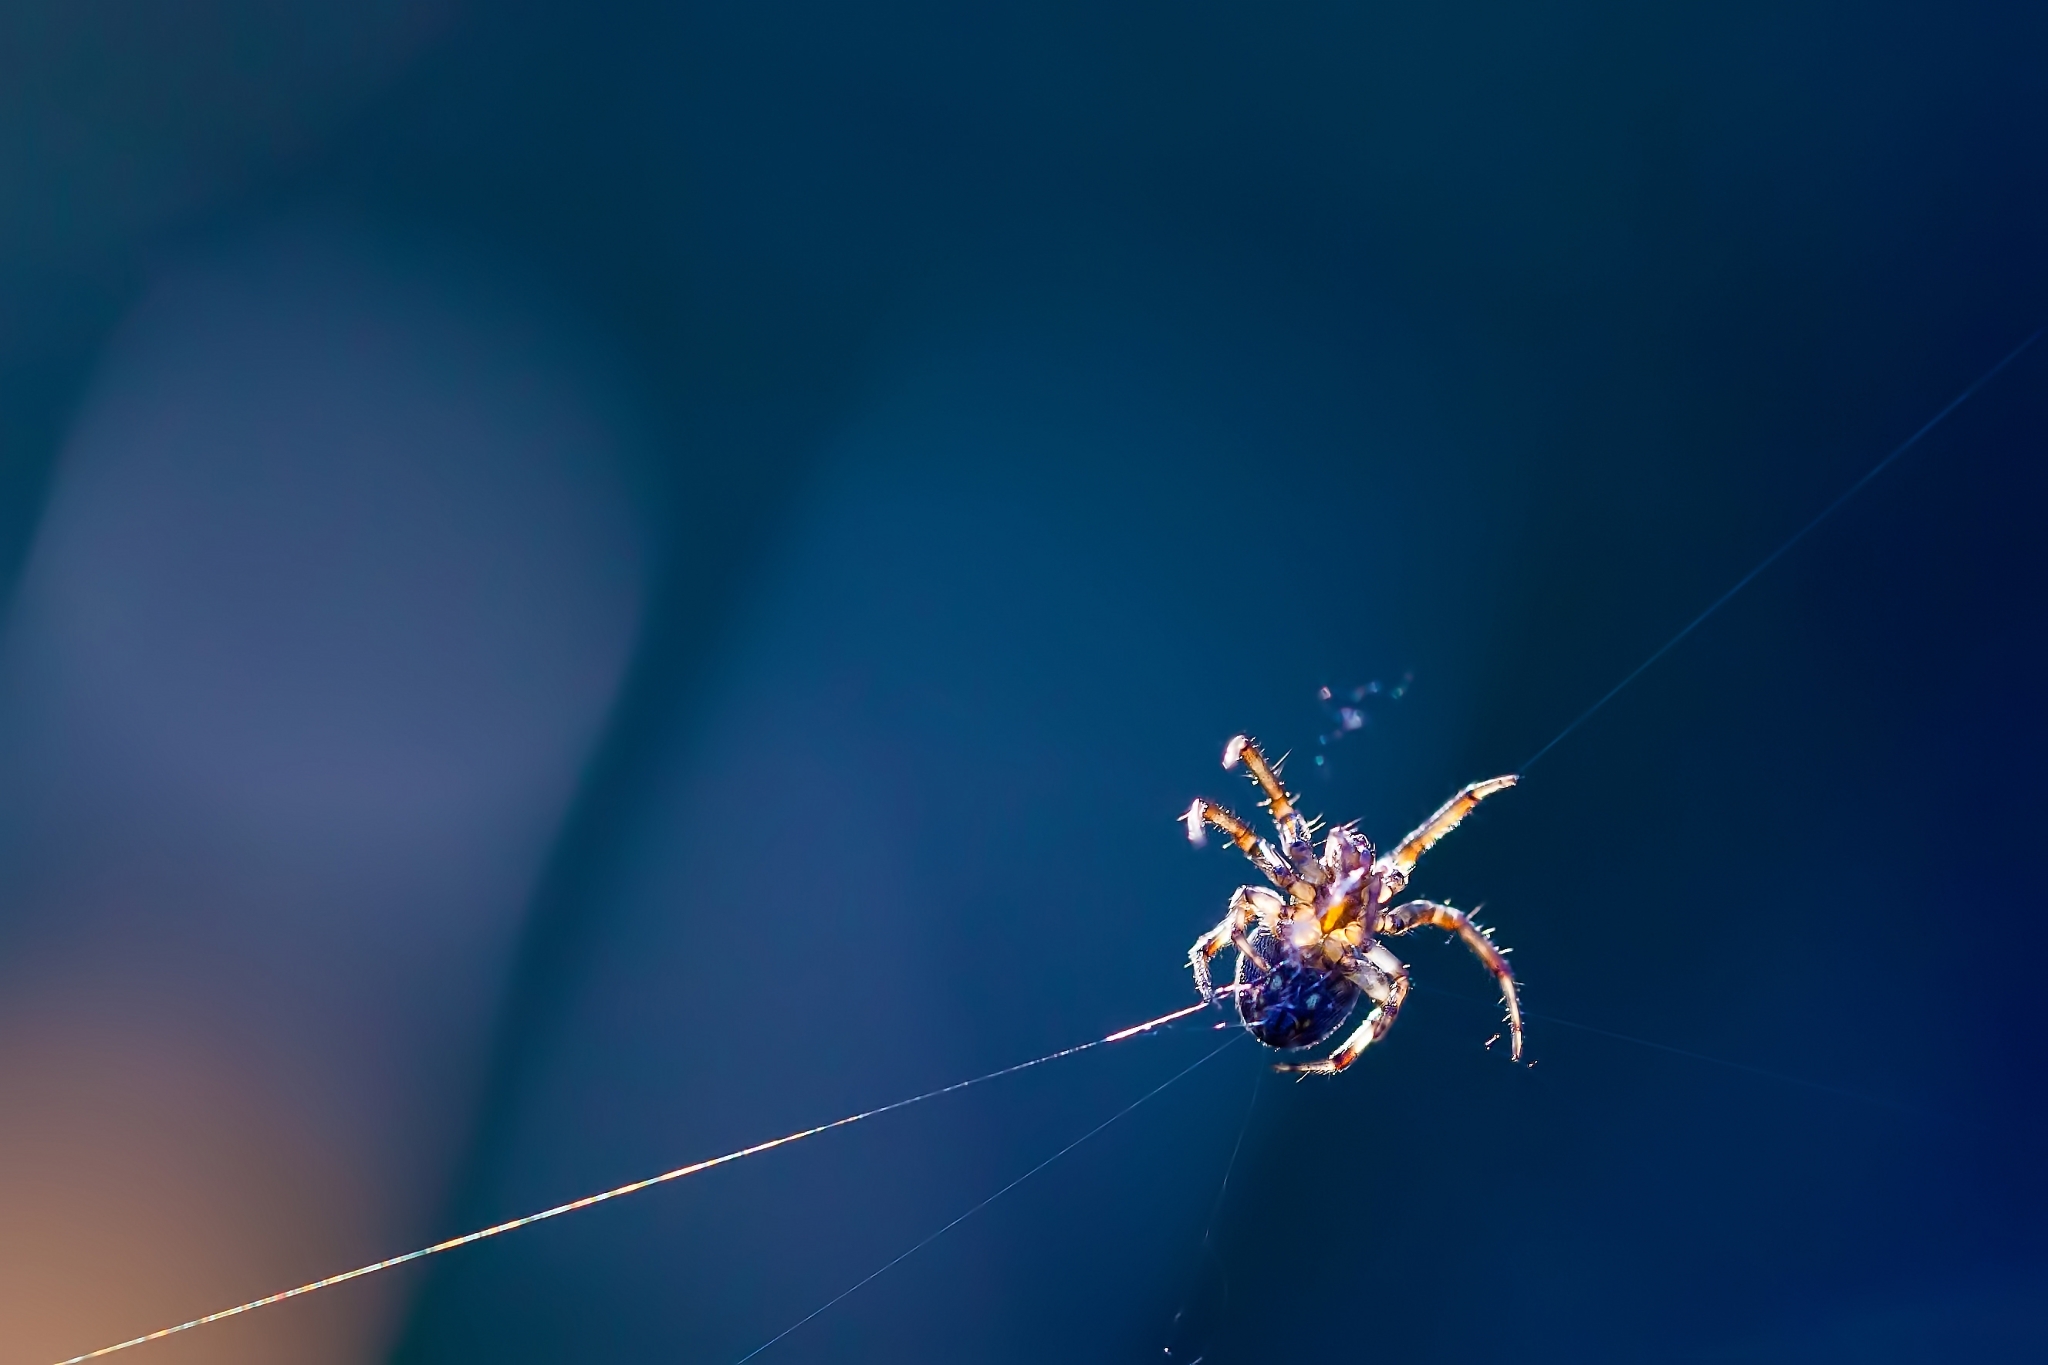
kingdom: Animalia
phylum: Arthropoda
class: Arachnida
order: Araneae
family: Araneidae
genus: Neoscona
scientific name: Neoscona arabesca
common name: Orb weavers
